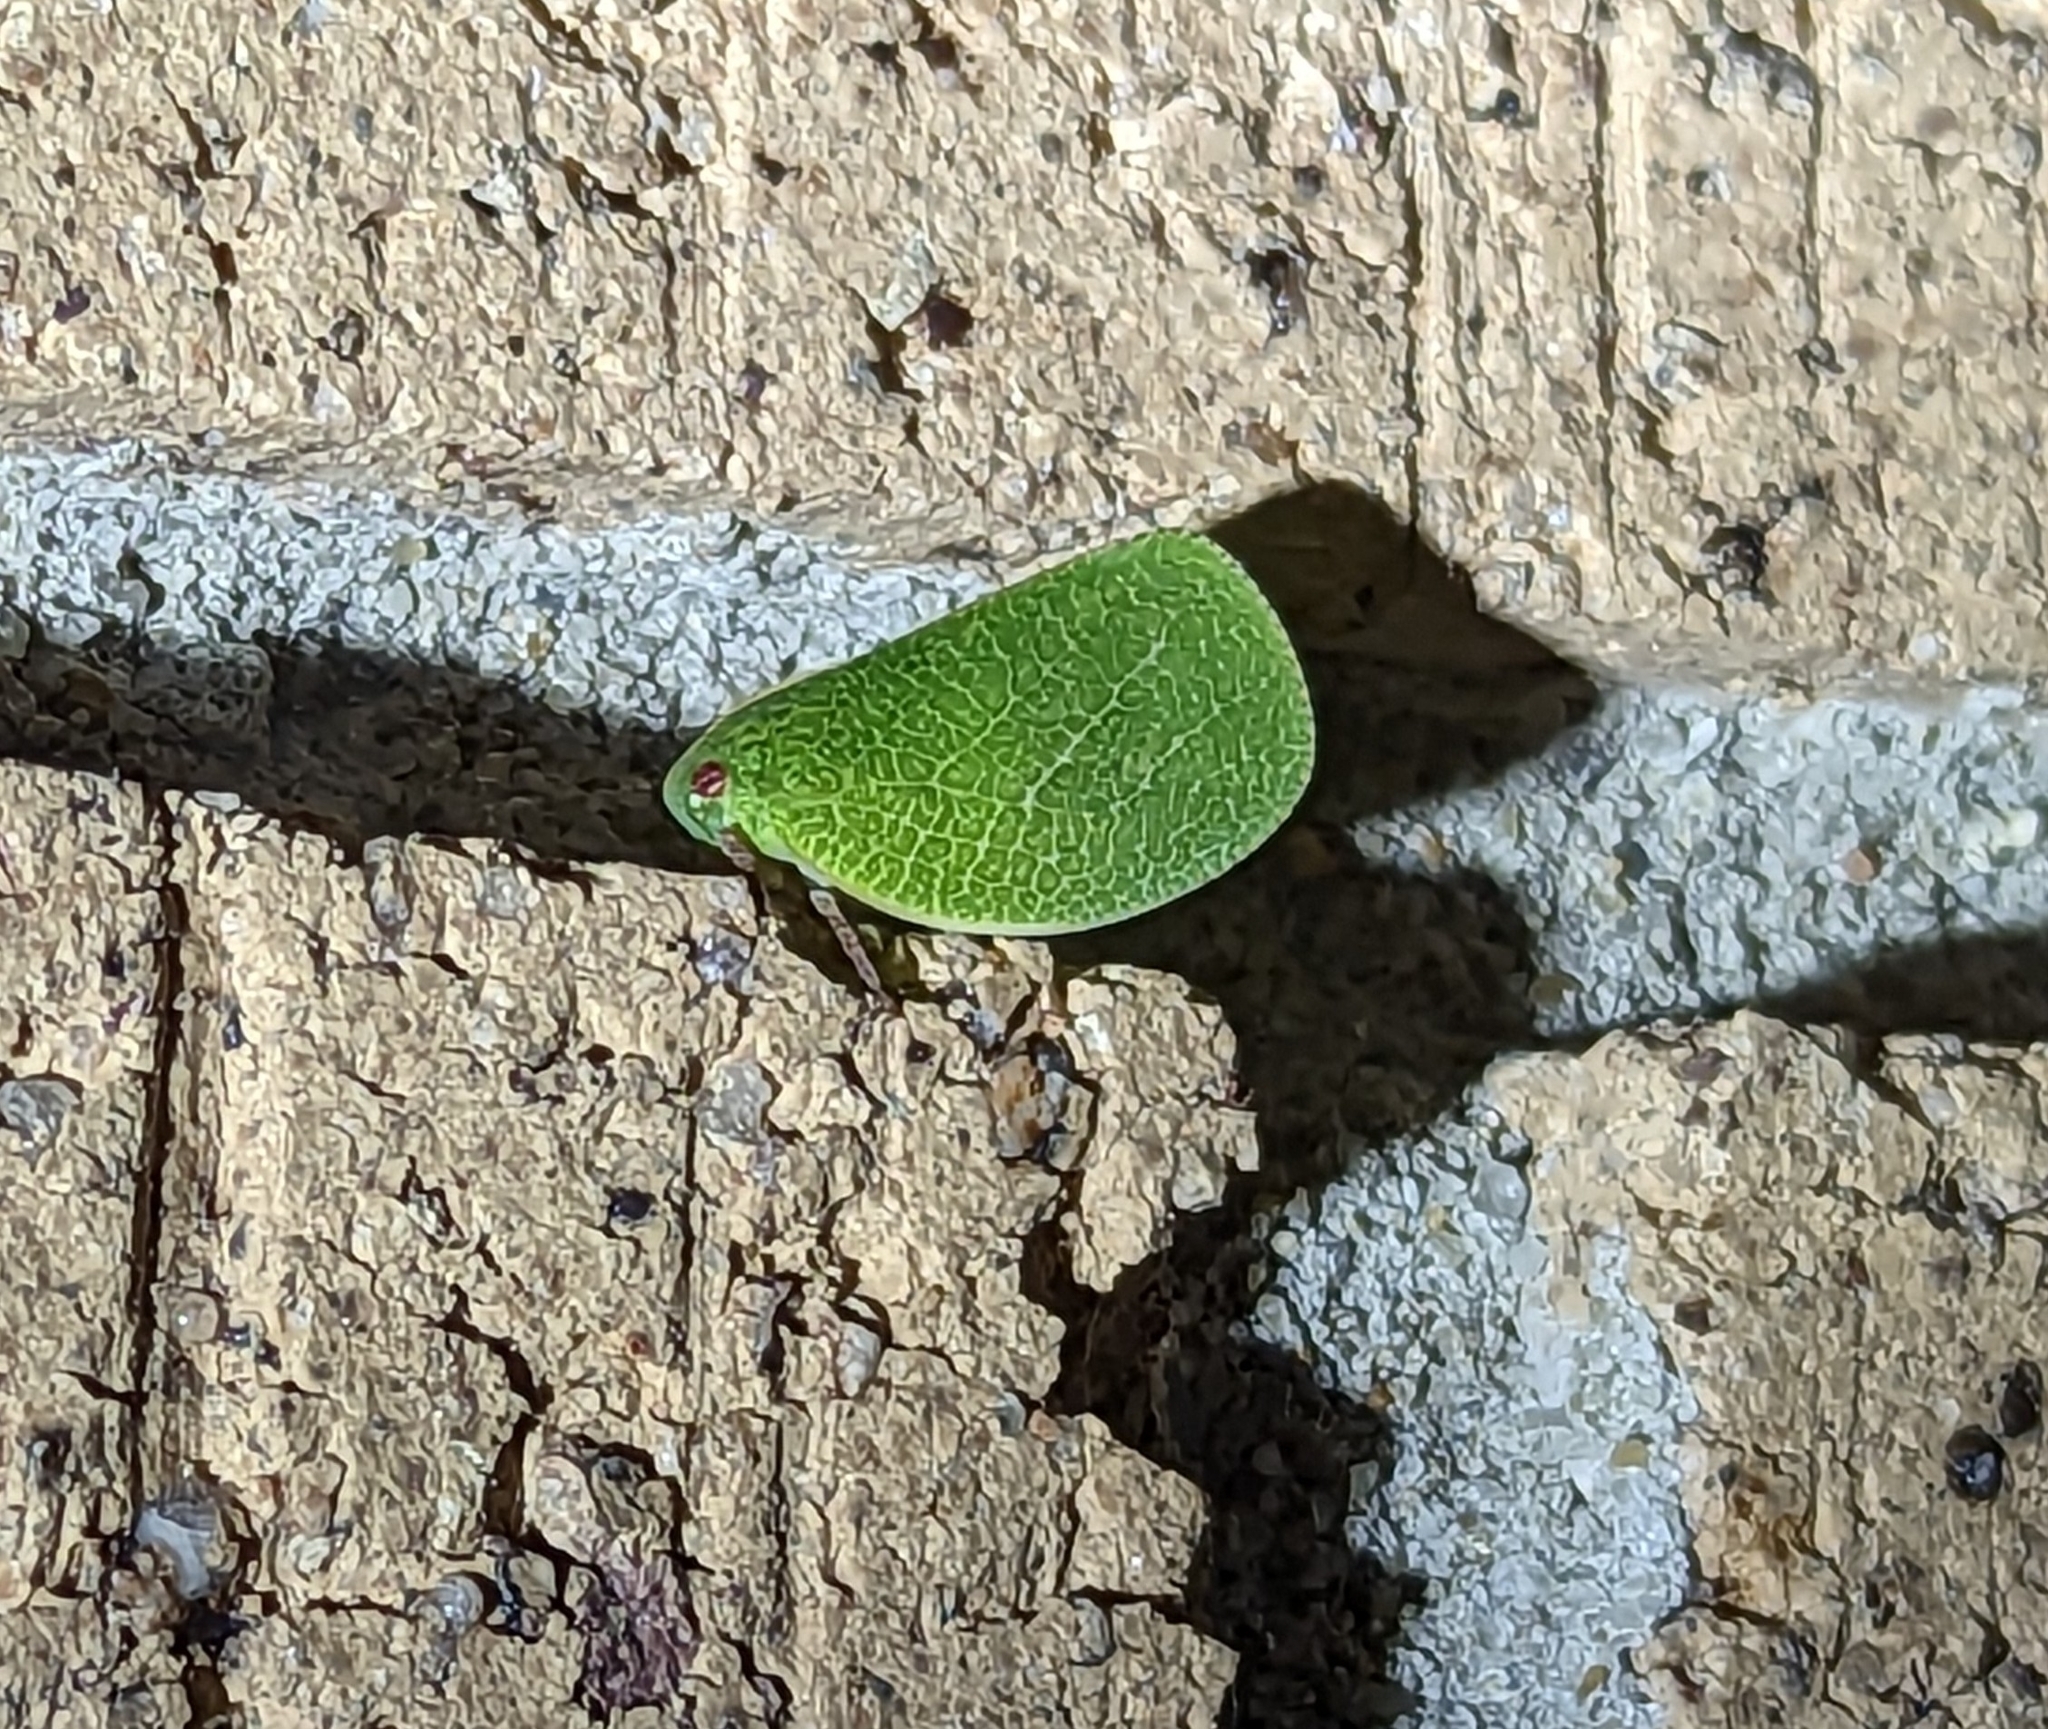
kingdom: Animalia
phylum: Arthropoda
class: Insecta
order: Hemiptera
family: Acanaloniidae
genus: Acanalonia
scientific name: Acanalonia servillei
